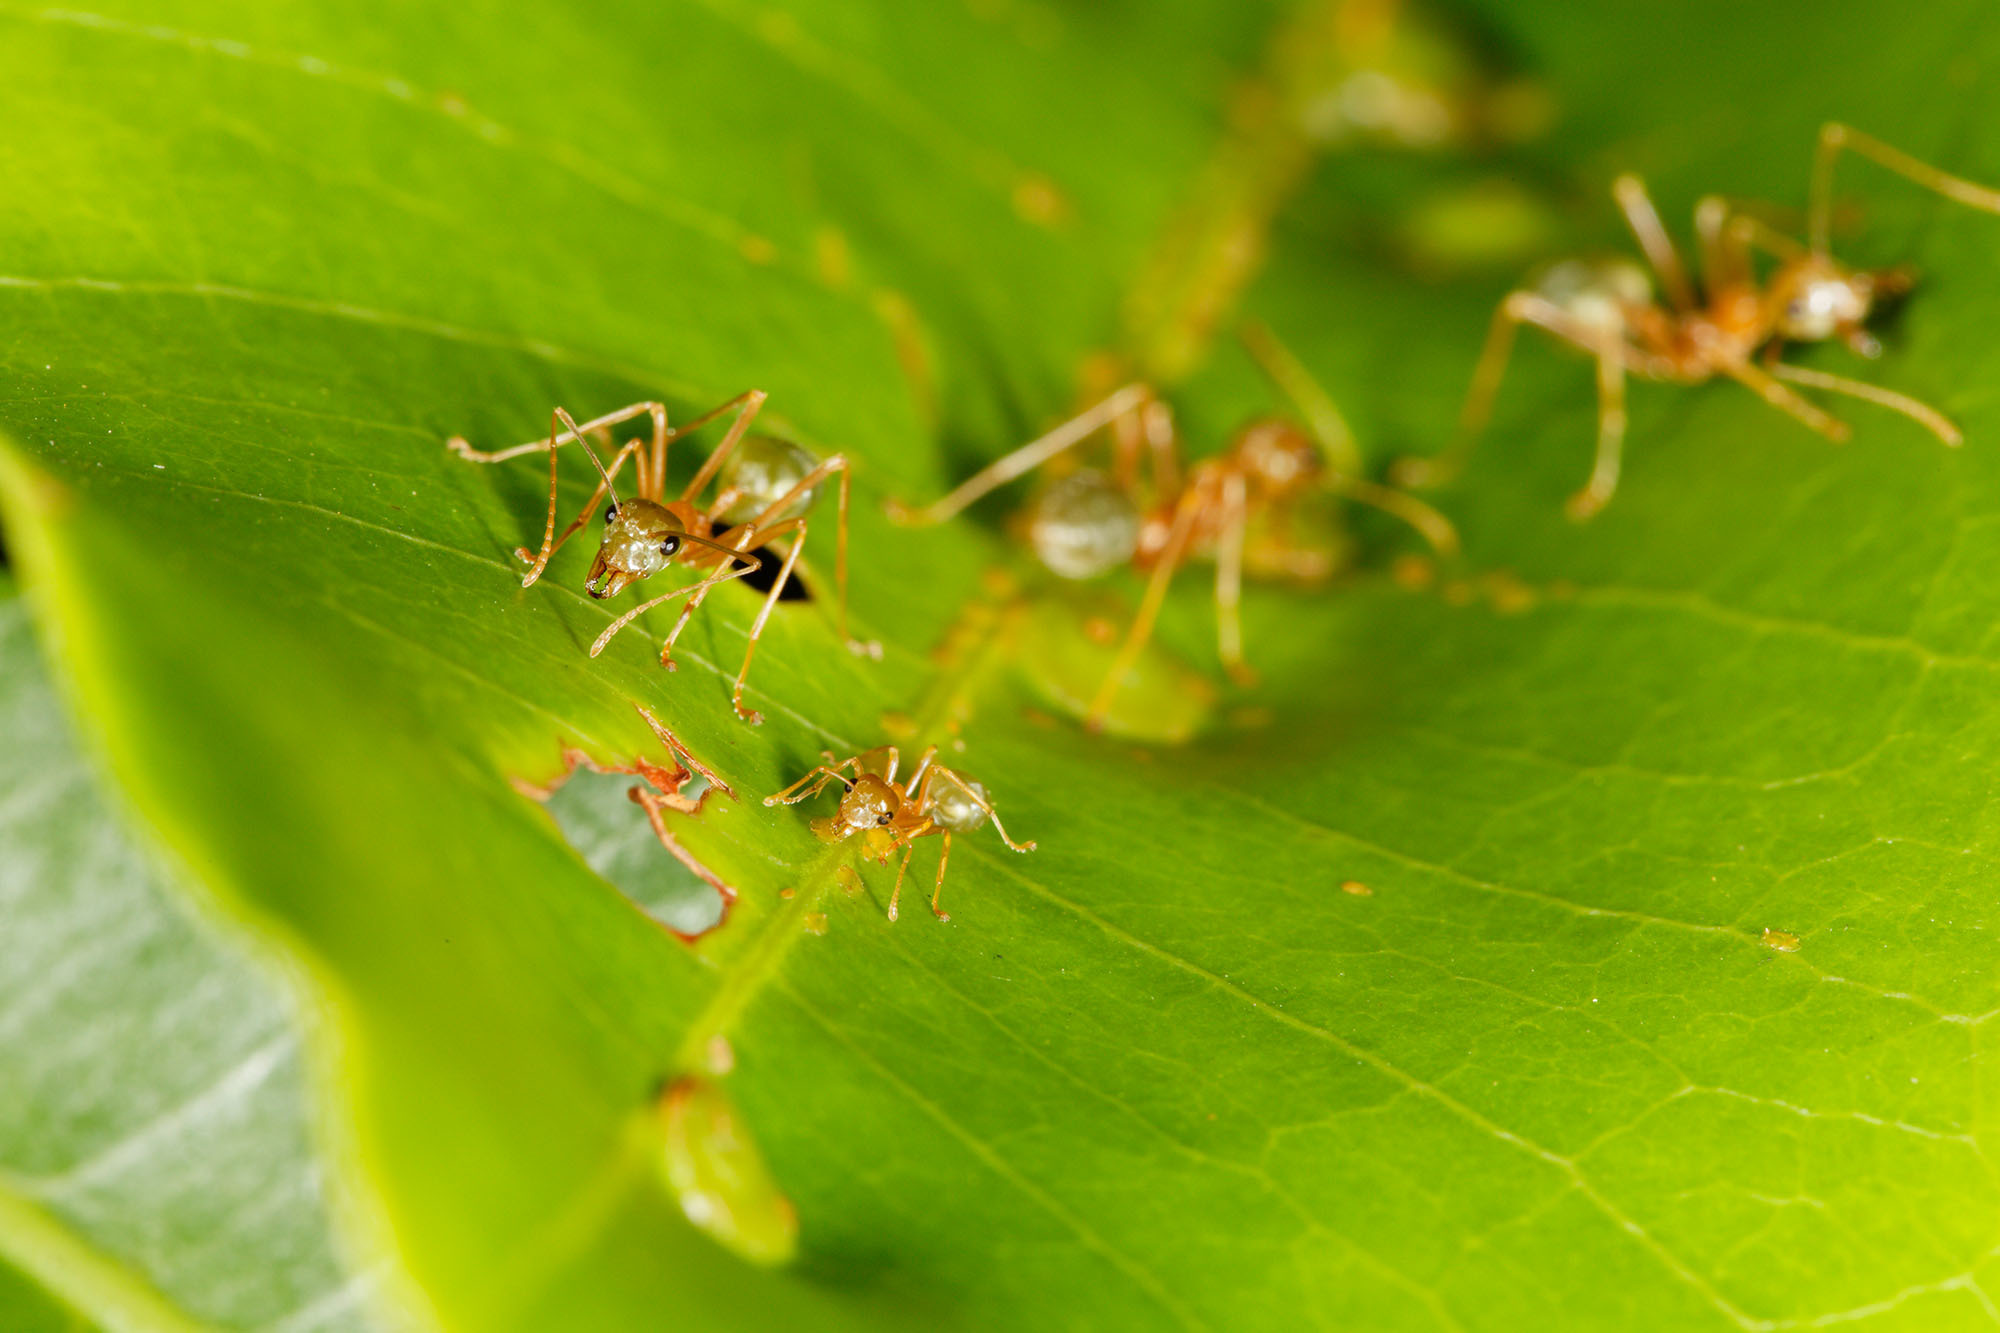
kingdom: Animalia
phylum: Arthropoda
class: Insecta
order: Hymenoptera
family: Formicidae
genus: Oecophylla
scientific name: Oecophylla smaragdina
